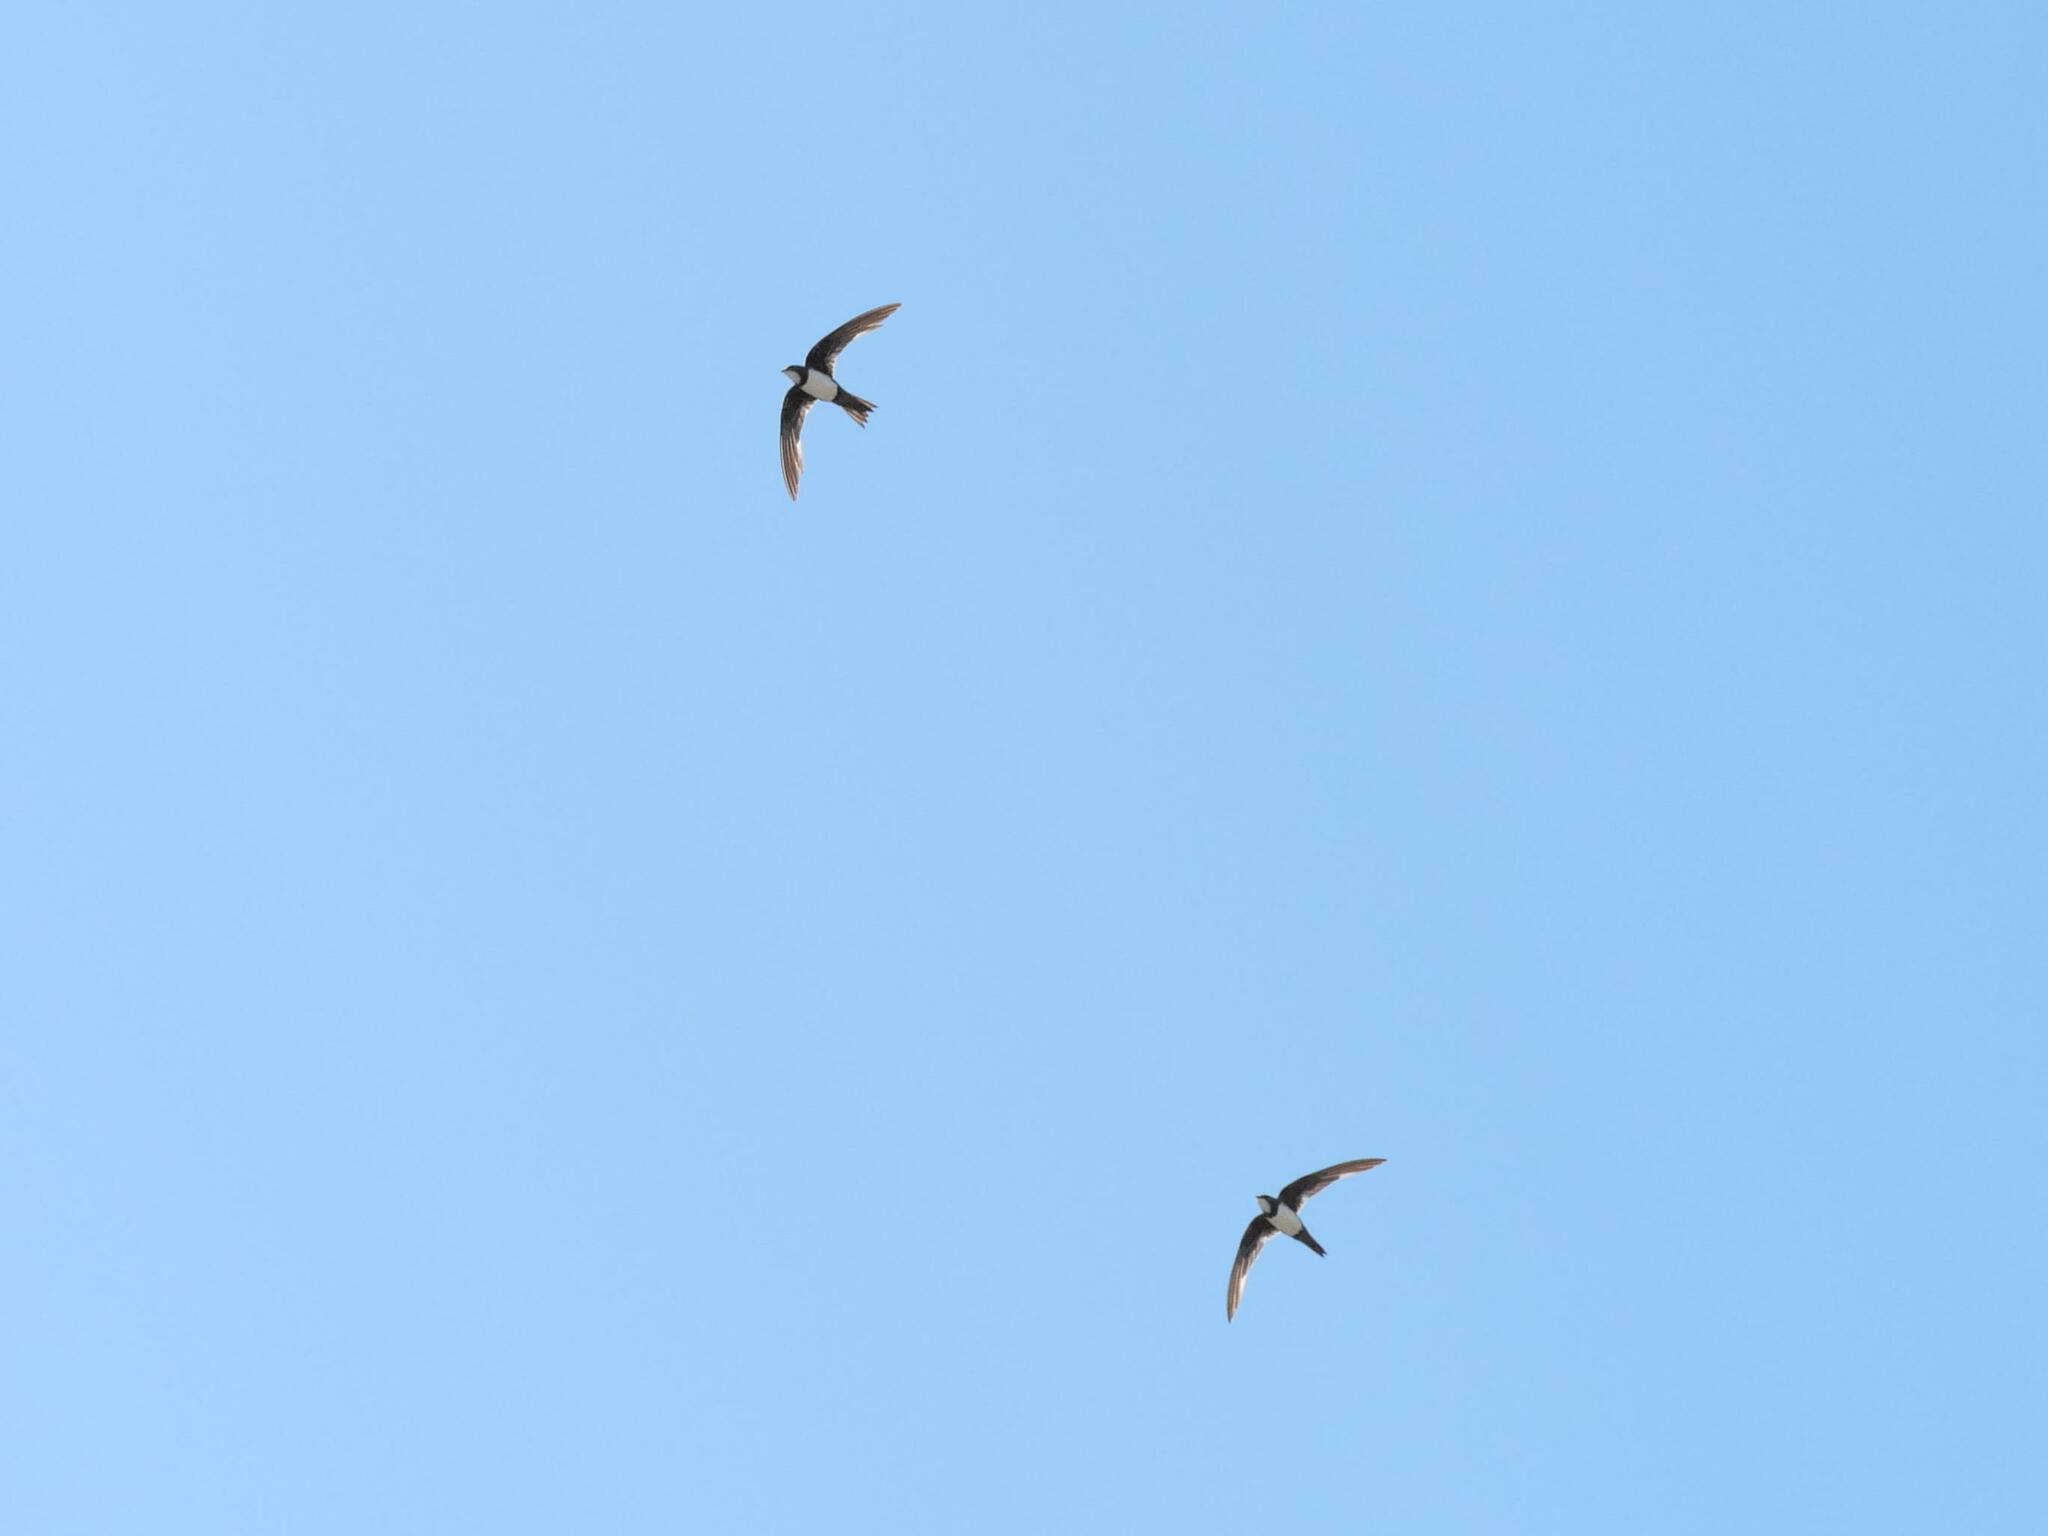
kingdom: Animalia
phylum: Chordata
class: Aves
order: Apodiformes
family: Apodidae
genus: Tachymarptis
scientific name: Tachymarptis melba
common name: Alpine swift
